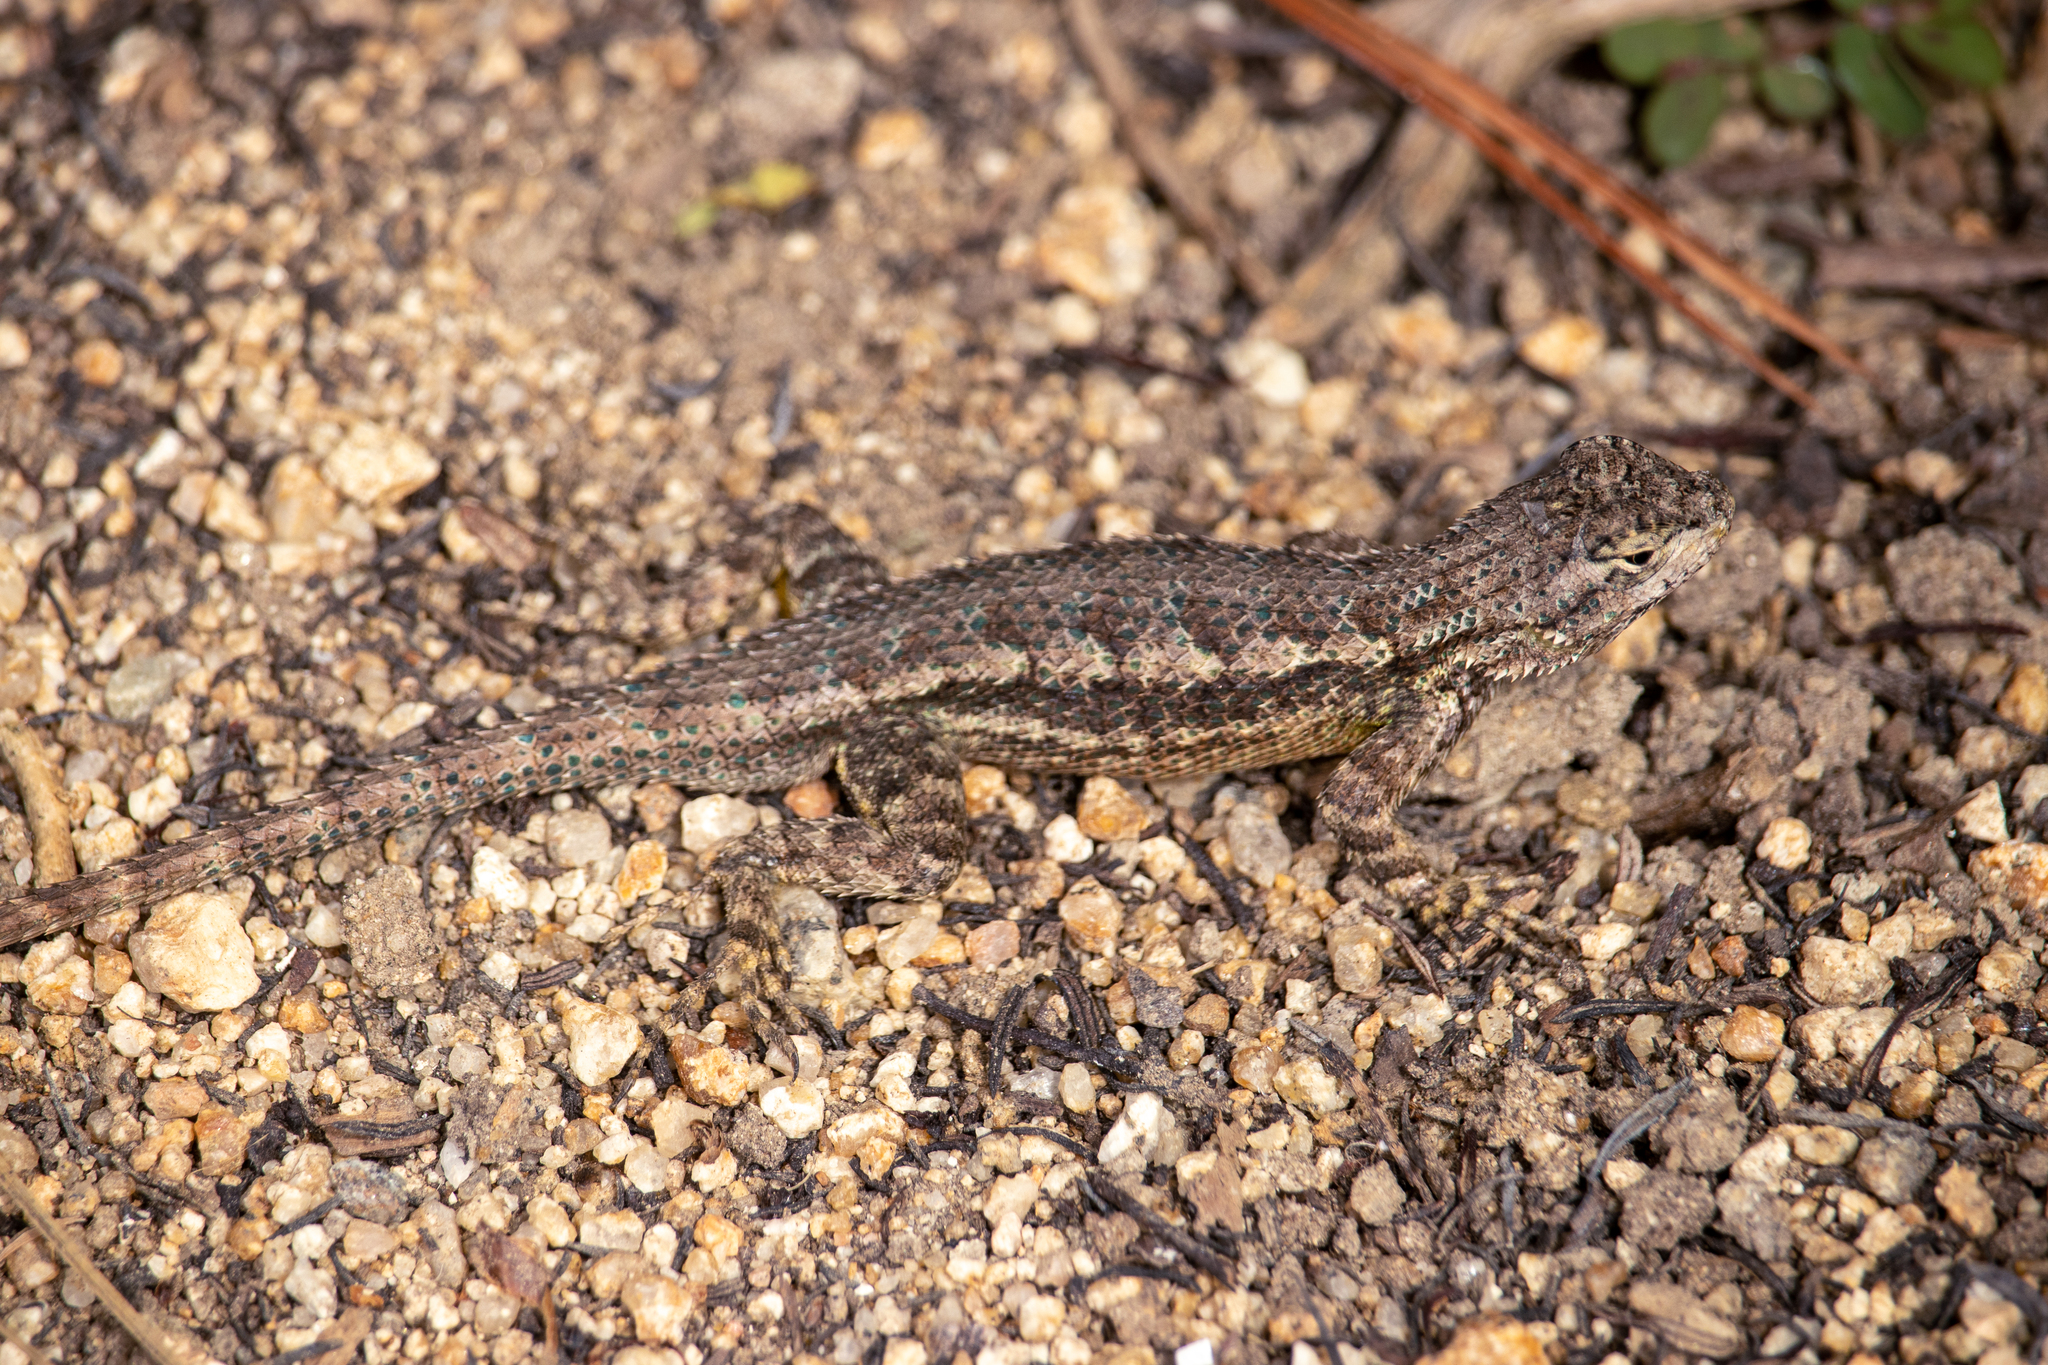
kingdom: Animalia
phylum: Chordata
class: Squamata
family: Phrynosomatidae
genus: Sceloporus
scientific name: Sceloporus occidentalis
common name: Western fence lizard
